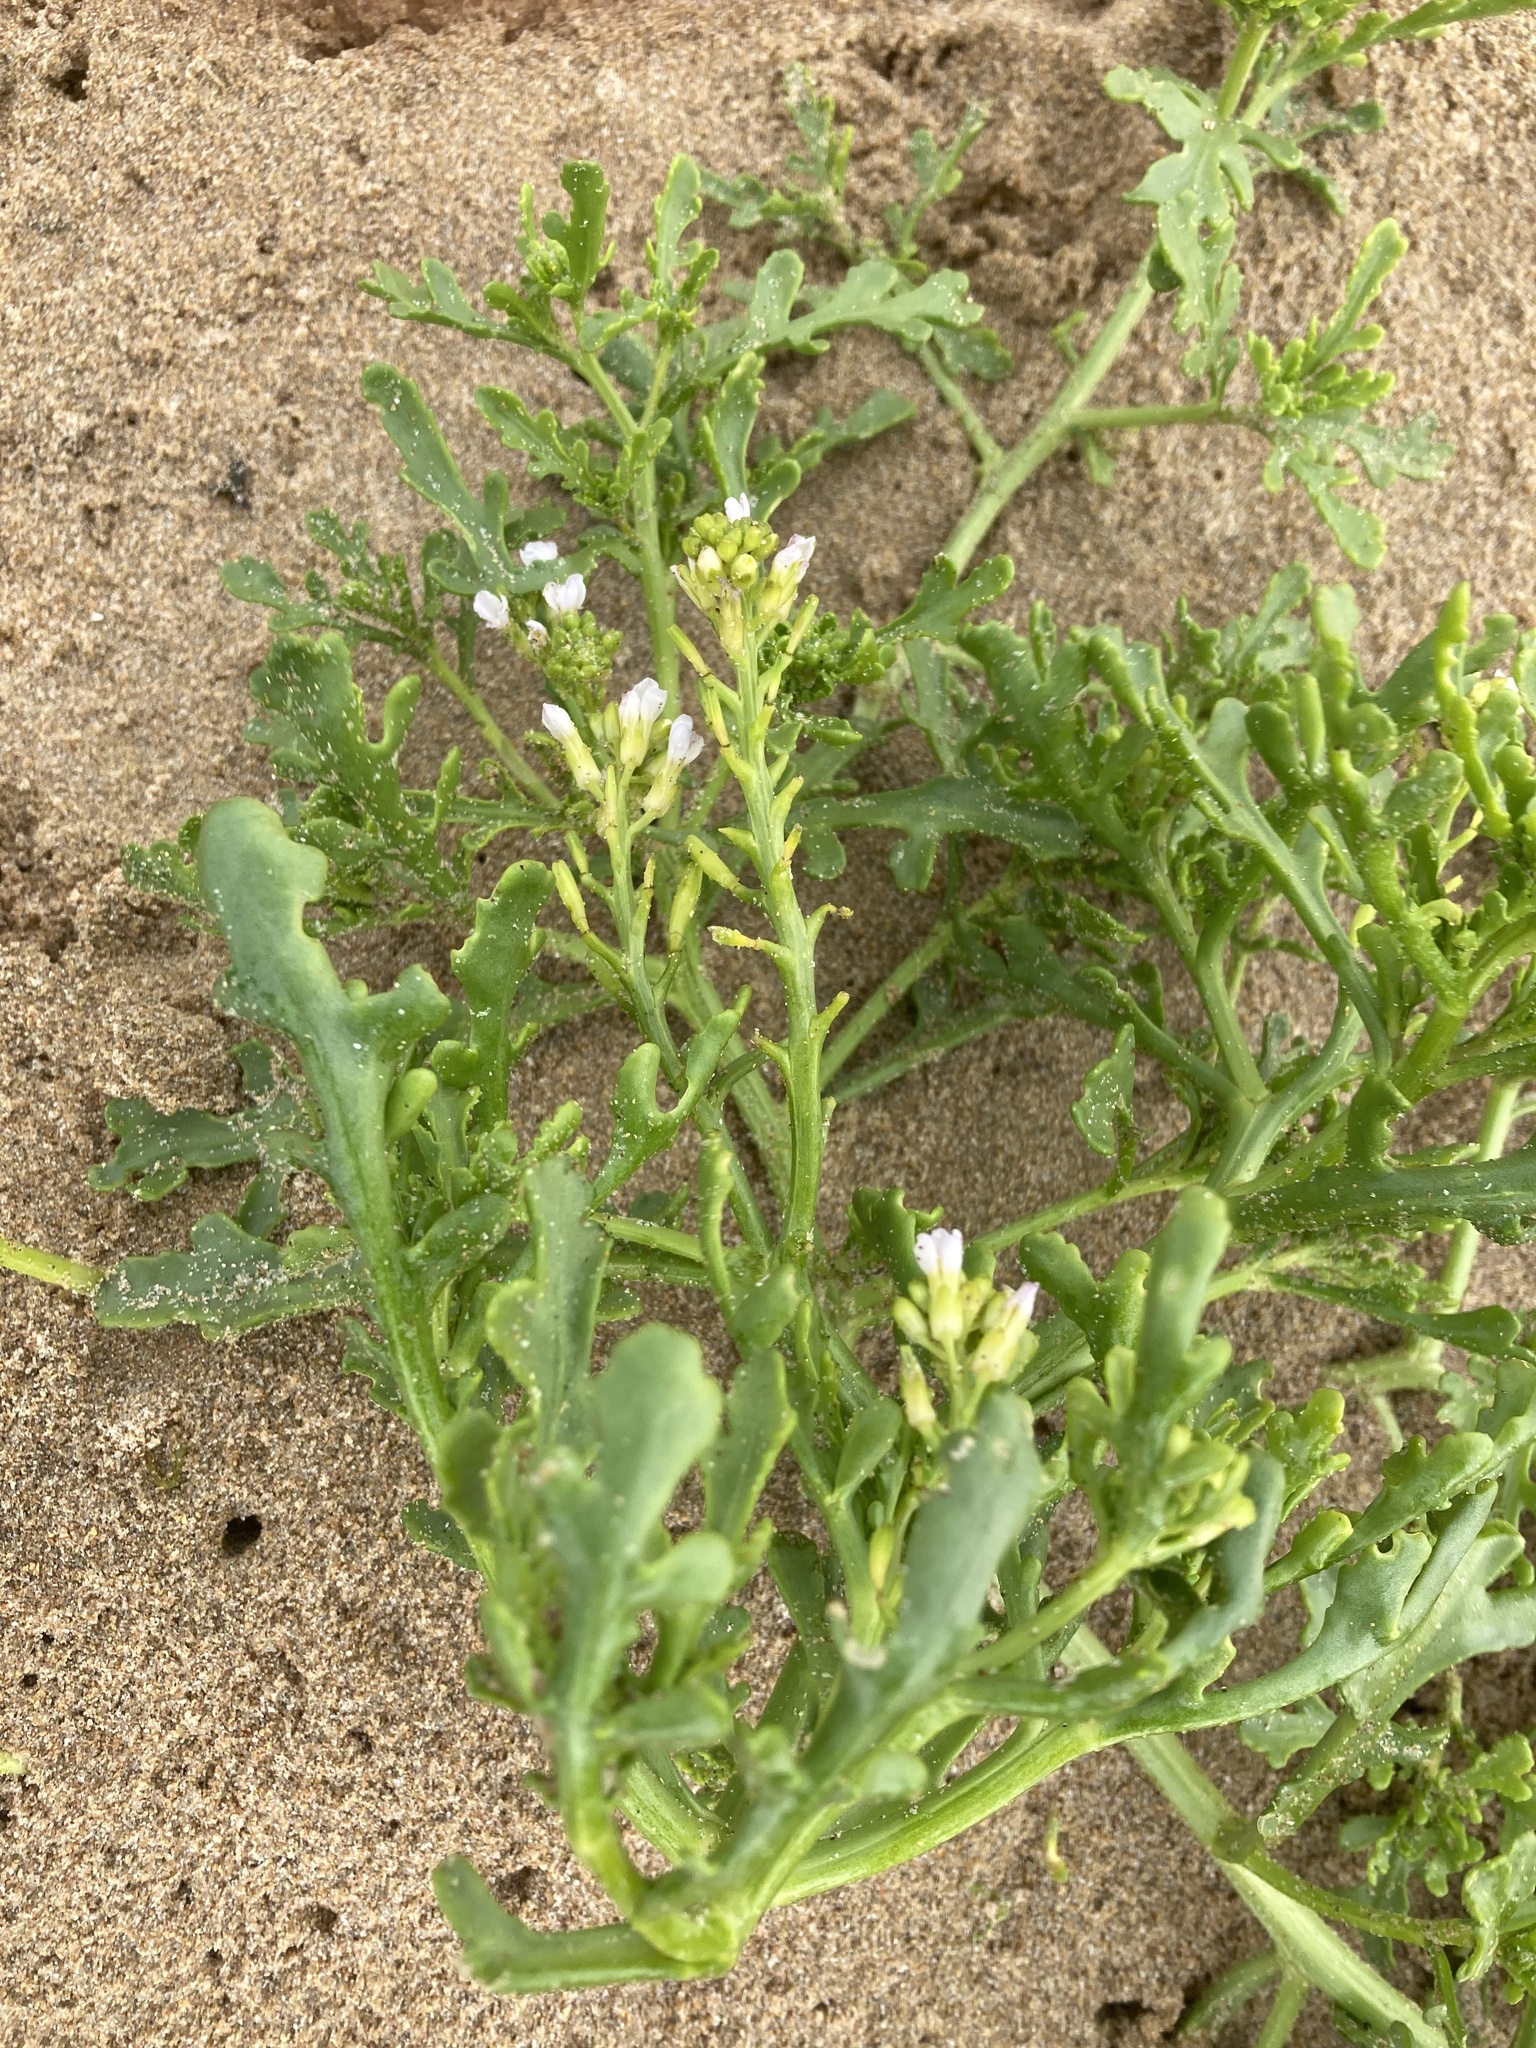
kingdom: Plantae
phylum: Tracheophyta
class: Magnoliopsida
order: Brassicales
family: Brassicaceae
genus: Cakile
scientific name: Cakile maritima
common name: Sea rocket
